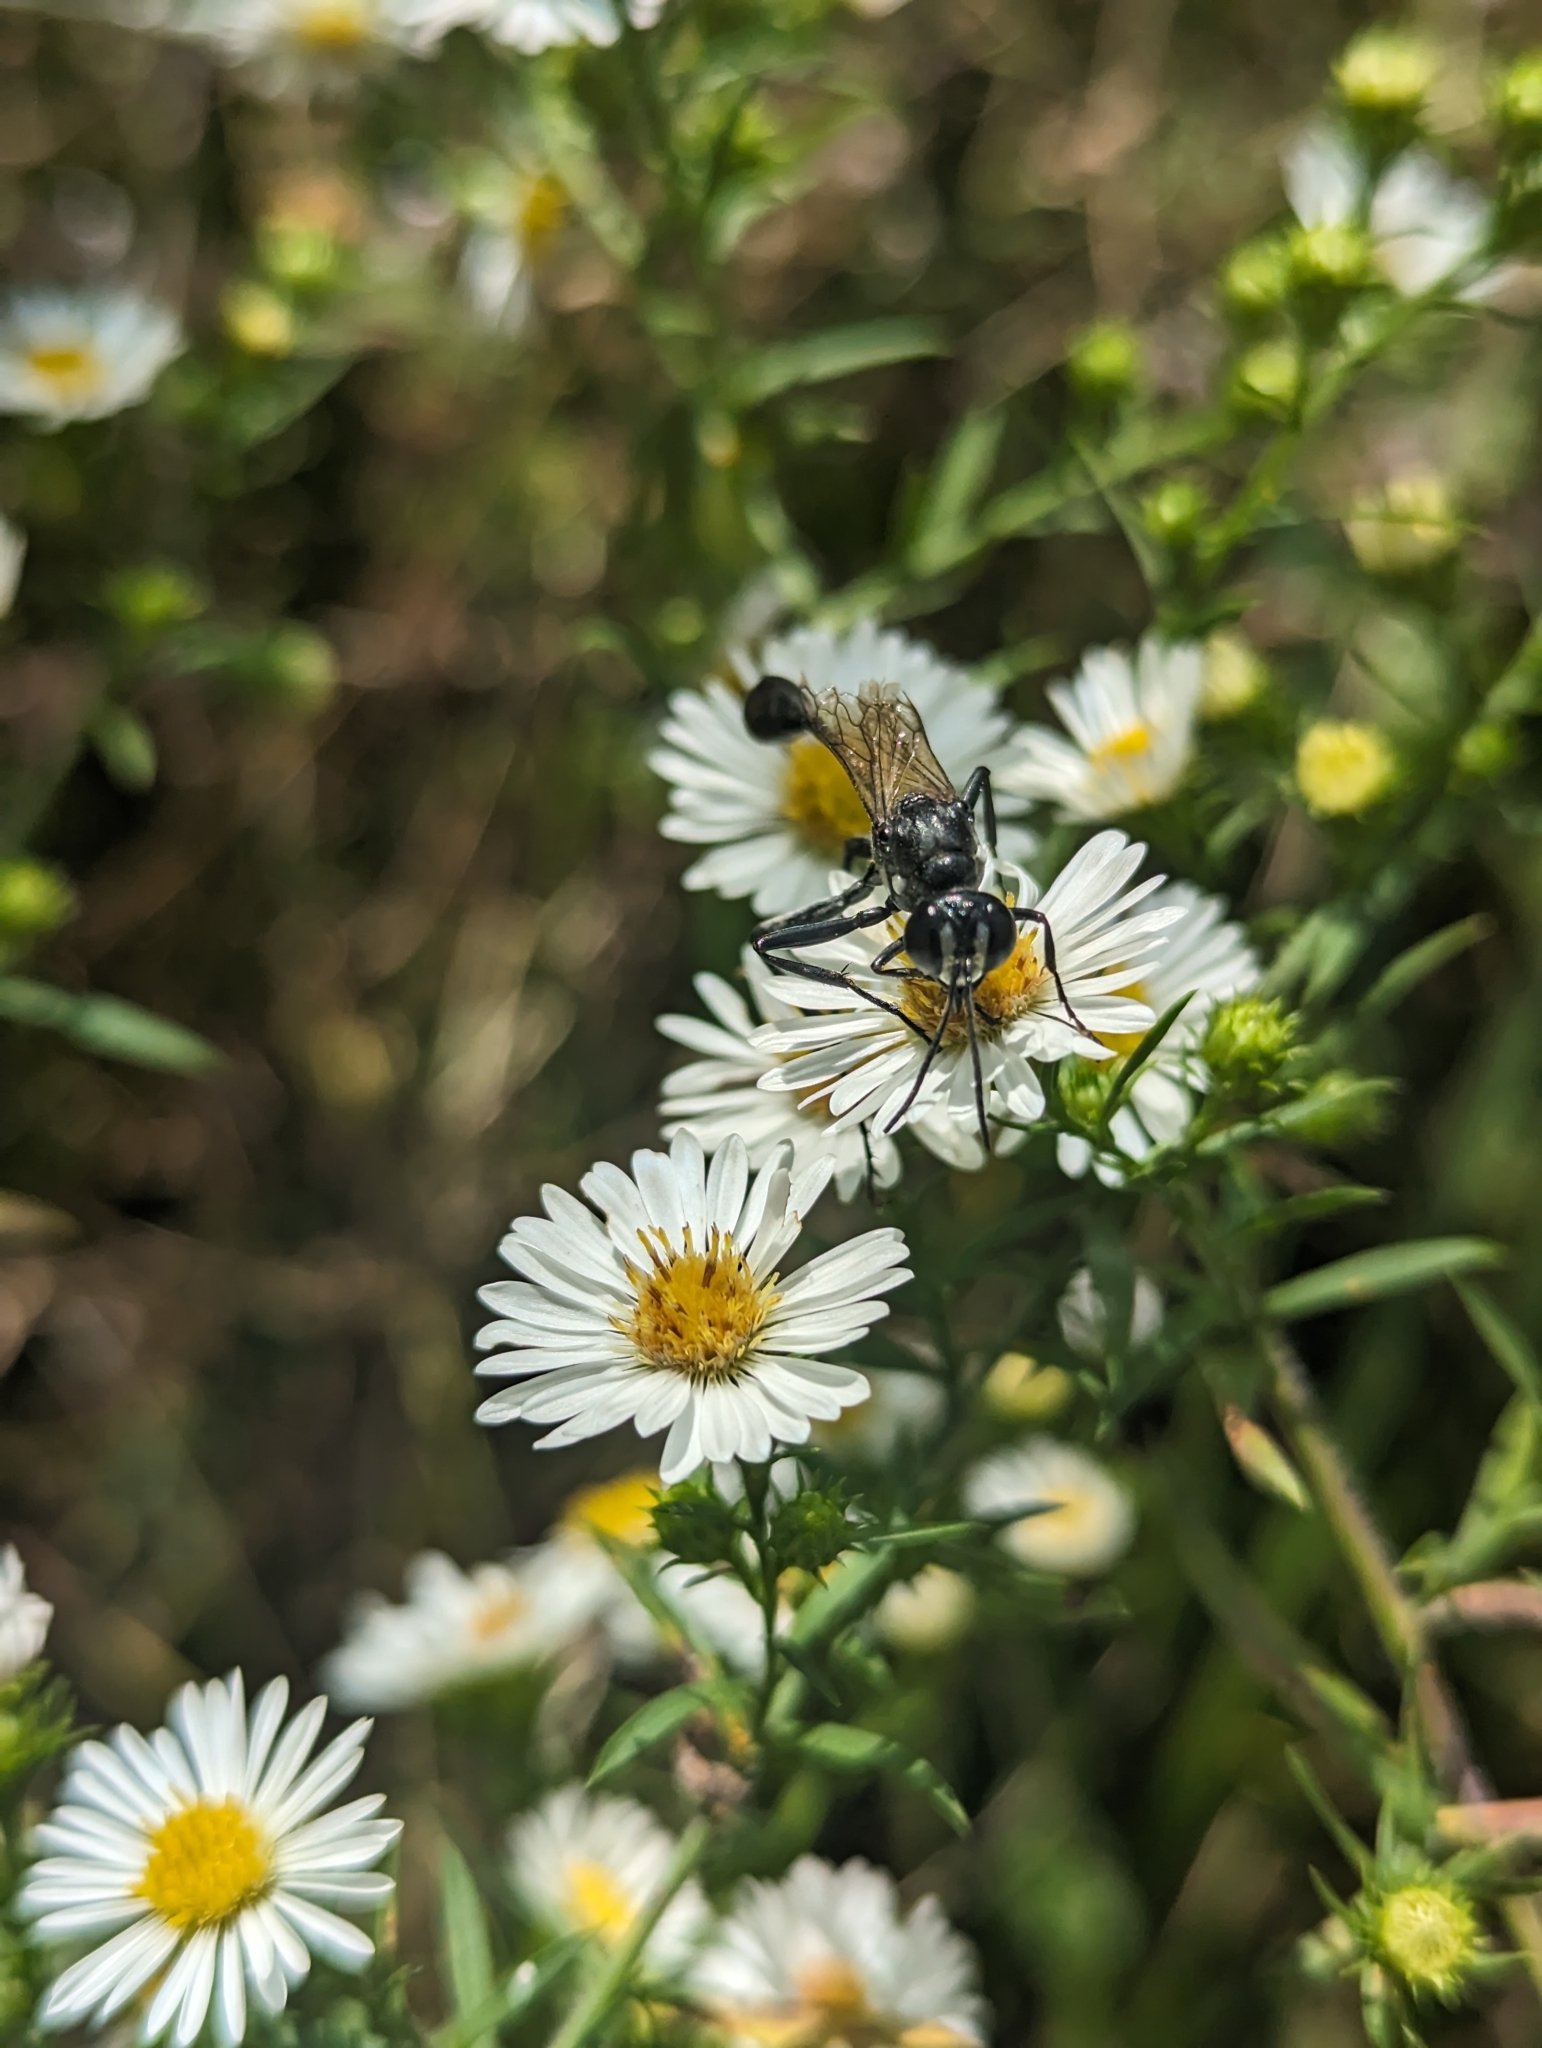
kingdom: Animalia
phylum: Arthropoda
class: Insecta
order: Hymenoptera
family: Sphecidae
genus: Eremnophila
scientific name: Eremnophila aureonotata
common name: Gold-marked thread-waisted wasp
